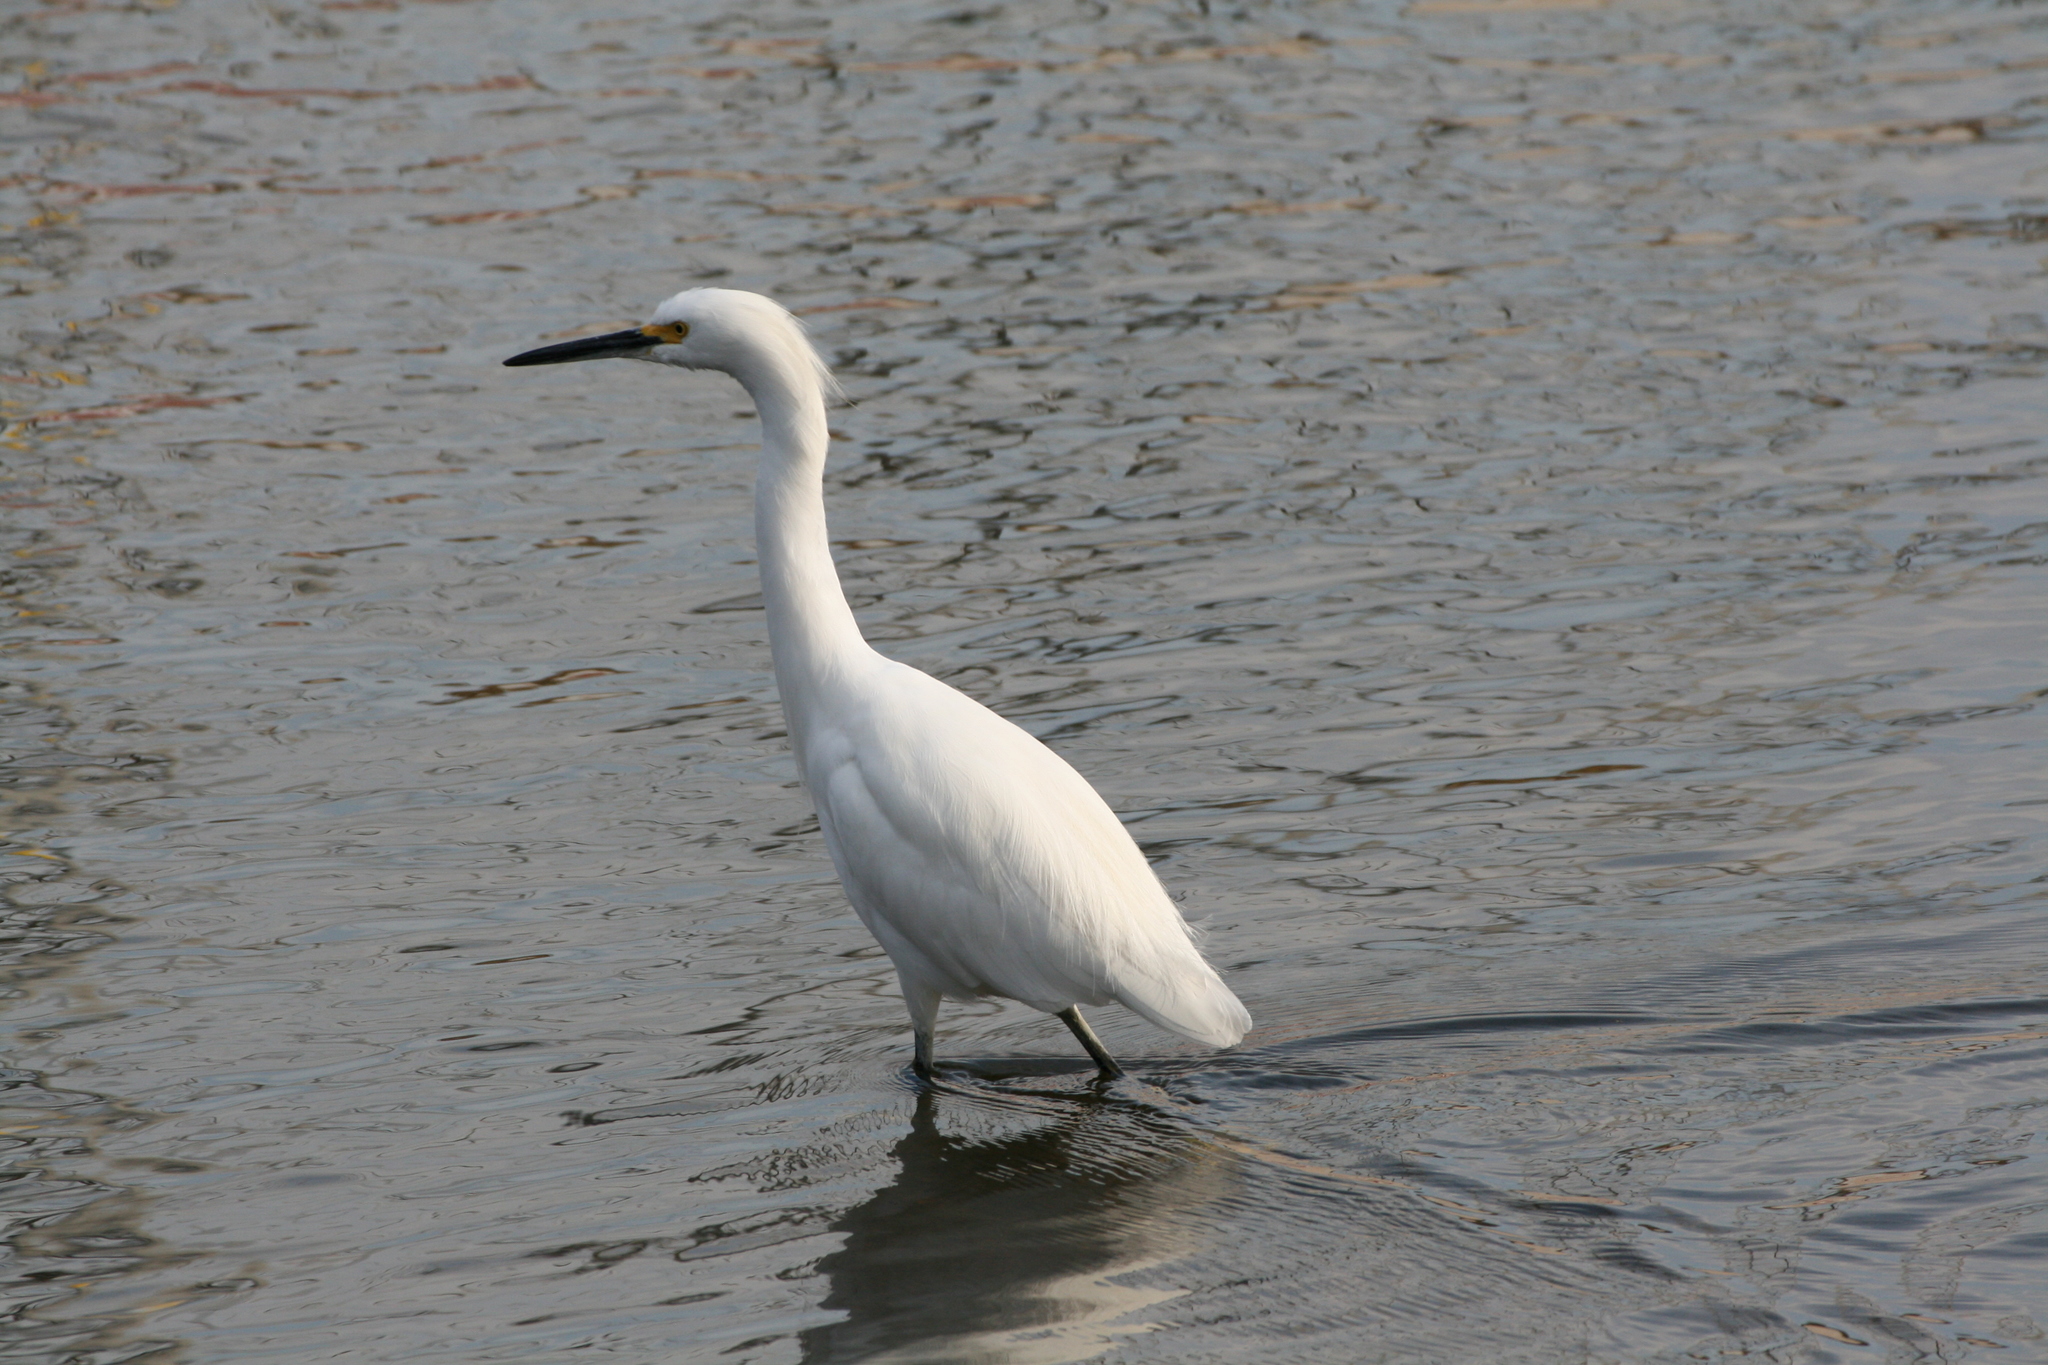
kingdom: Animalia
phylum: Chordata
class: Aves
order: Pelecaniformes
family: Ardeidae
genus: Egretta
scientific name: Egretta thula
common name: Snowy egret
